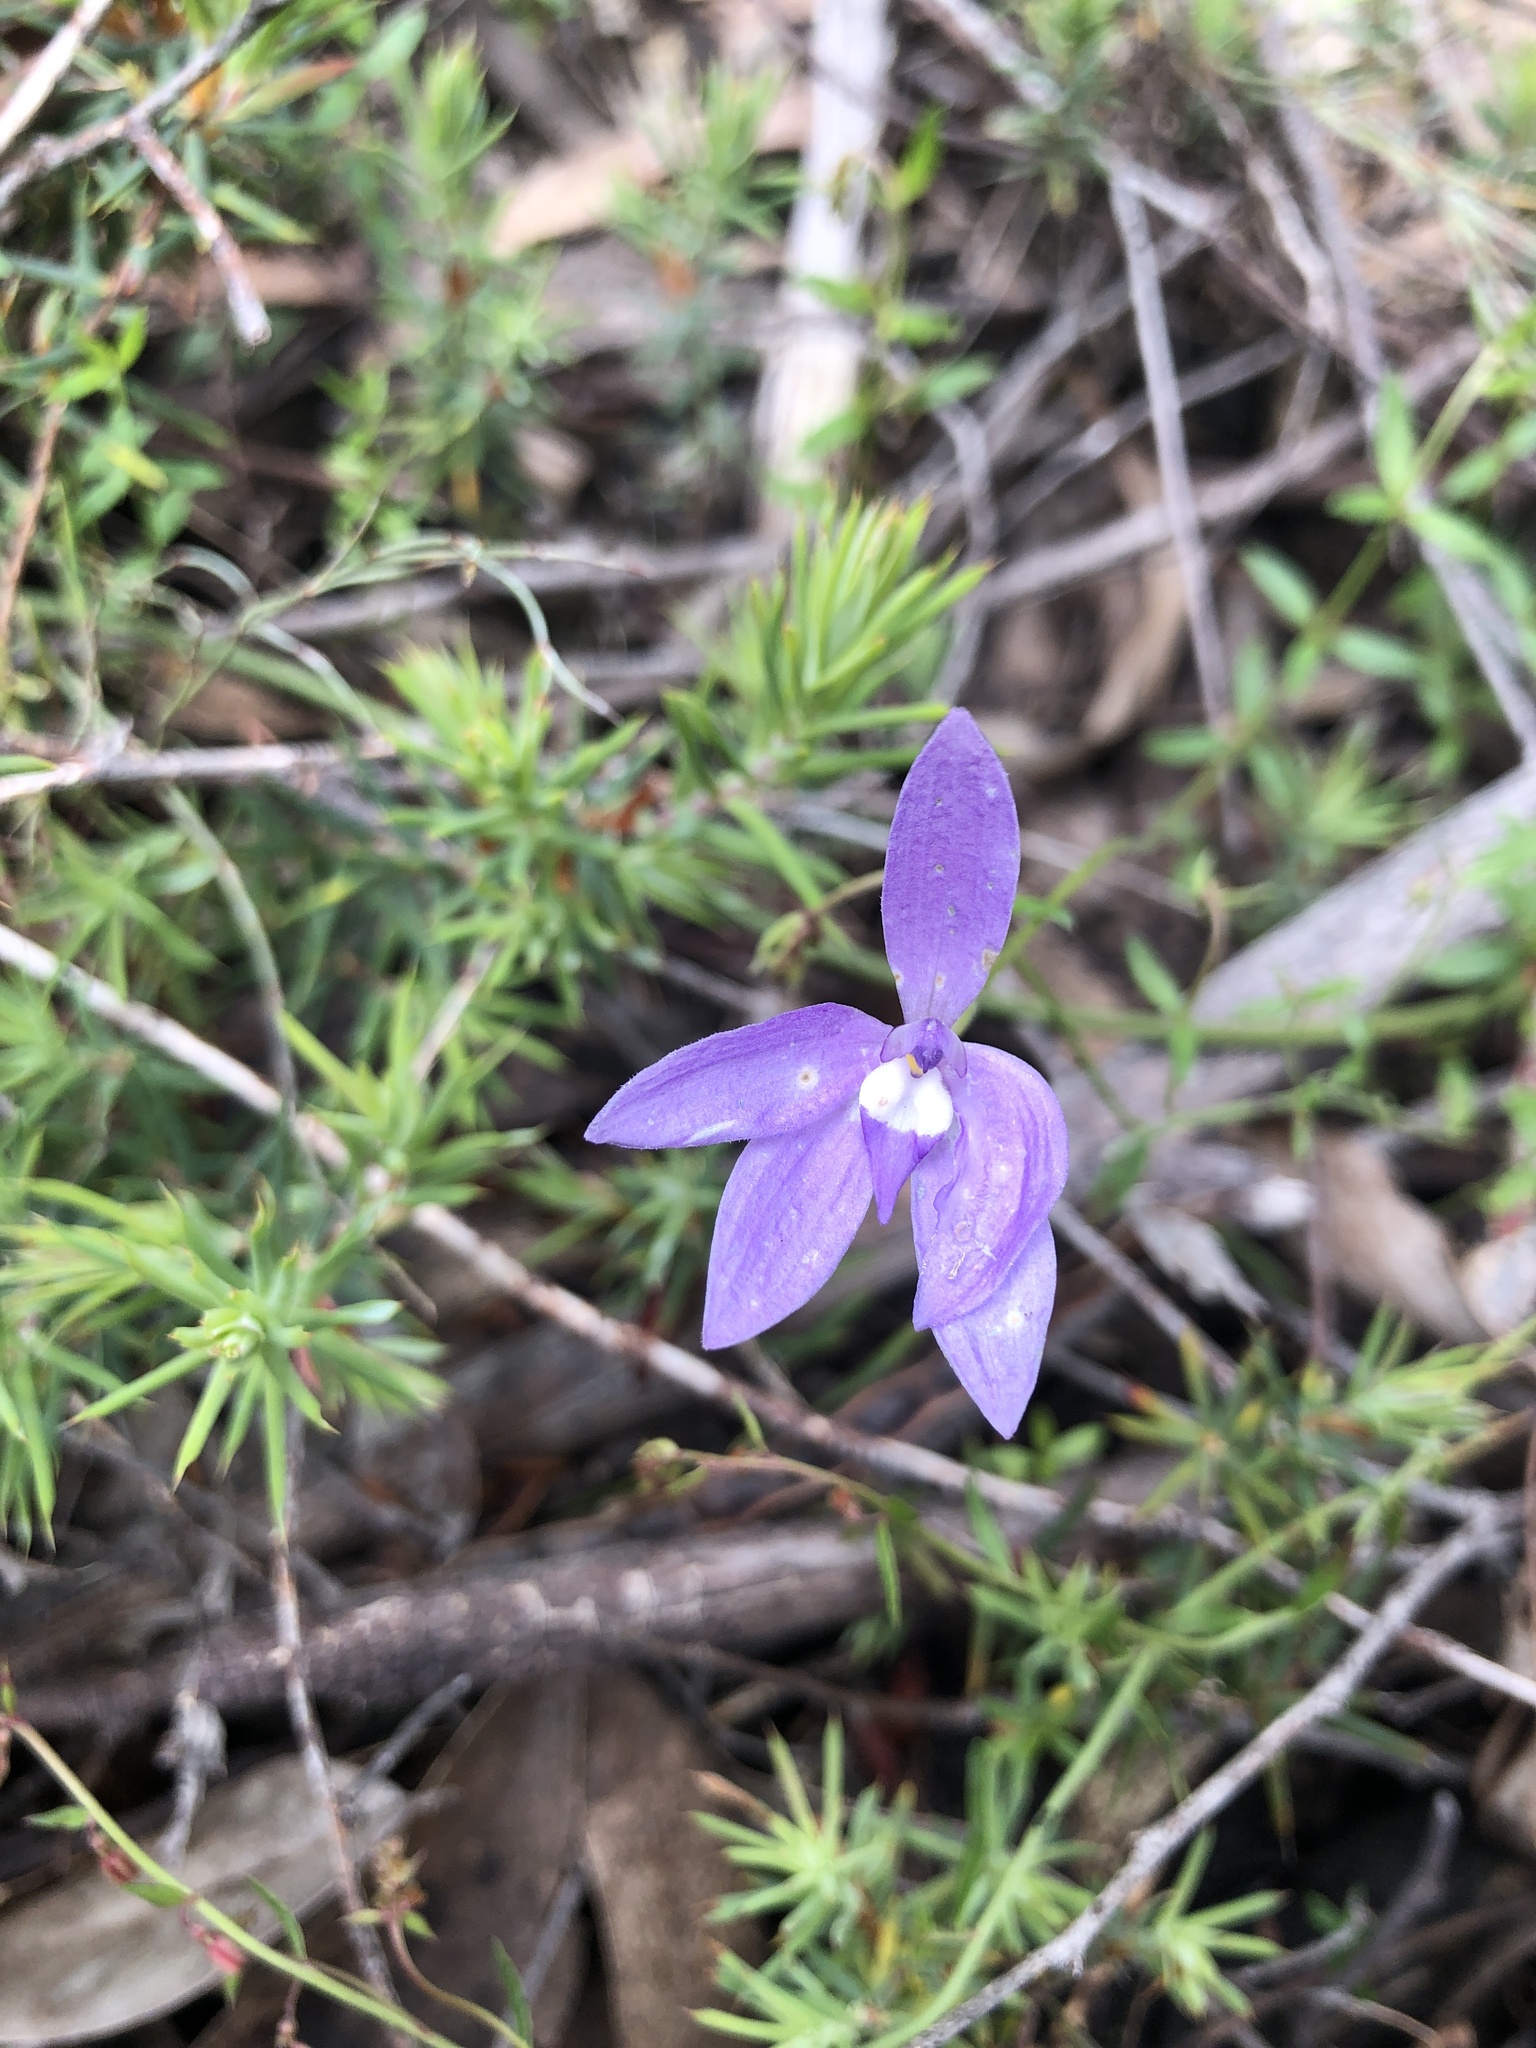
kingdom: Plantae
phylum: Tracheophyta
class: Liliopsida
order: Asparagales
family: Orchidaceae
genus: Caladenia
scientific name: Caladenia major
